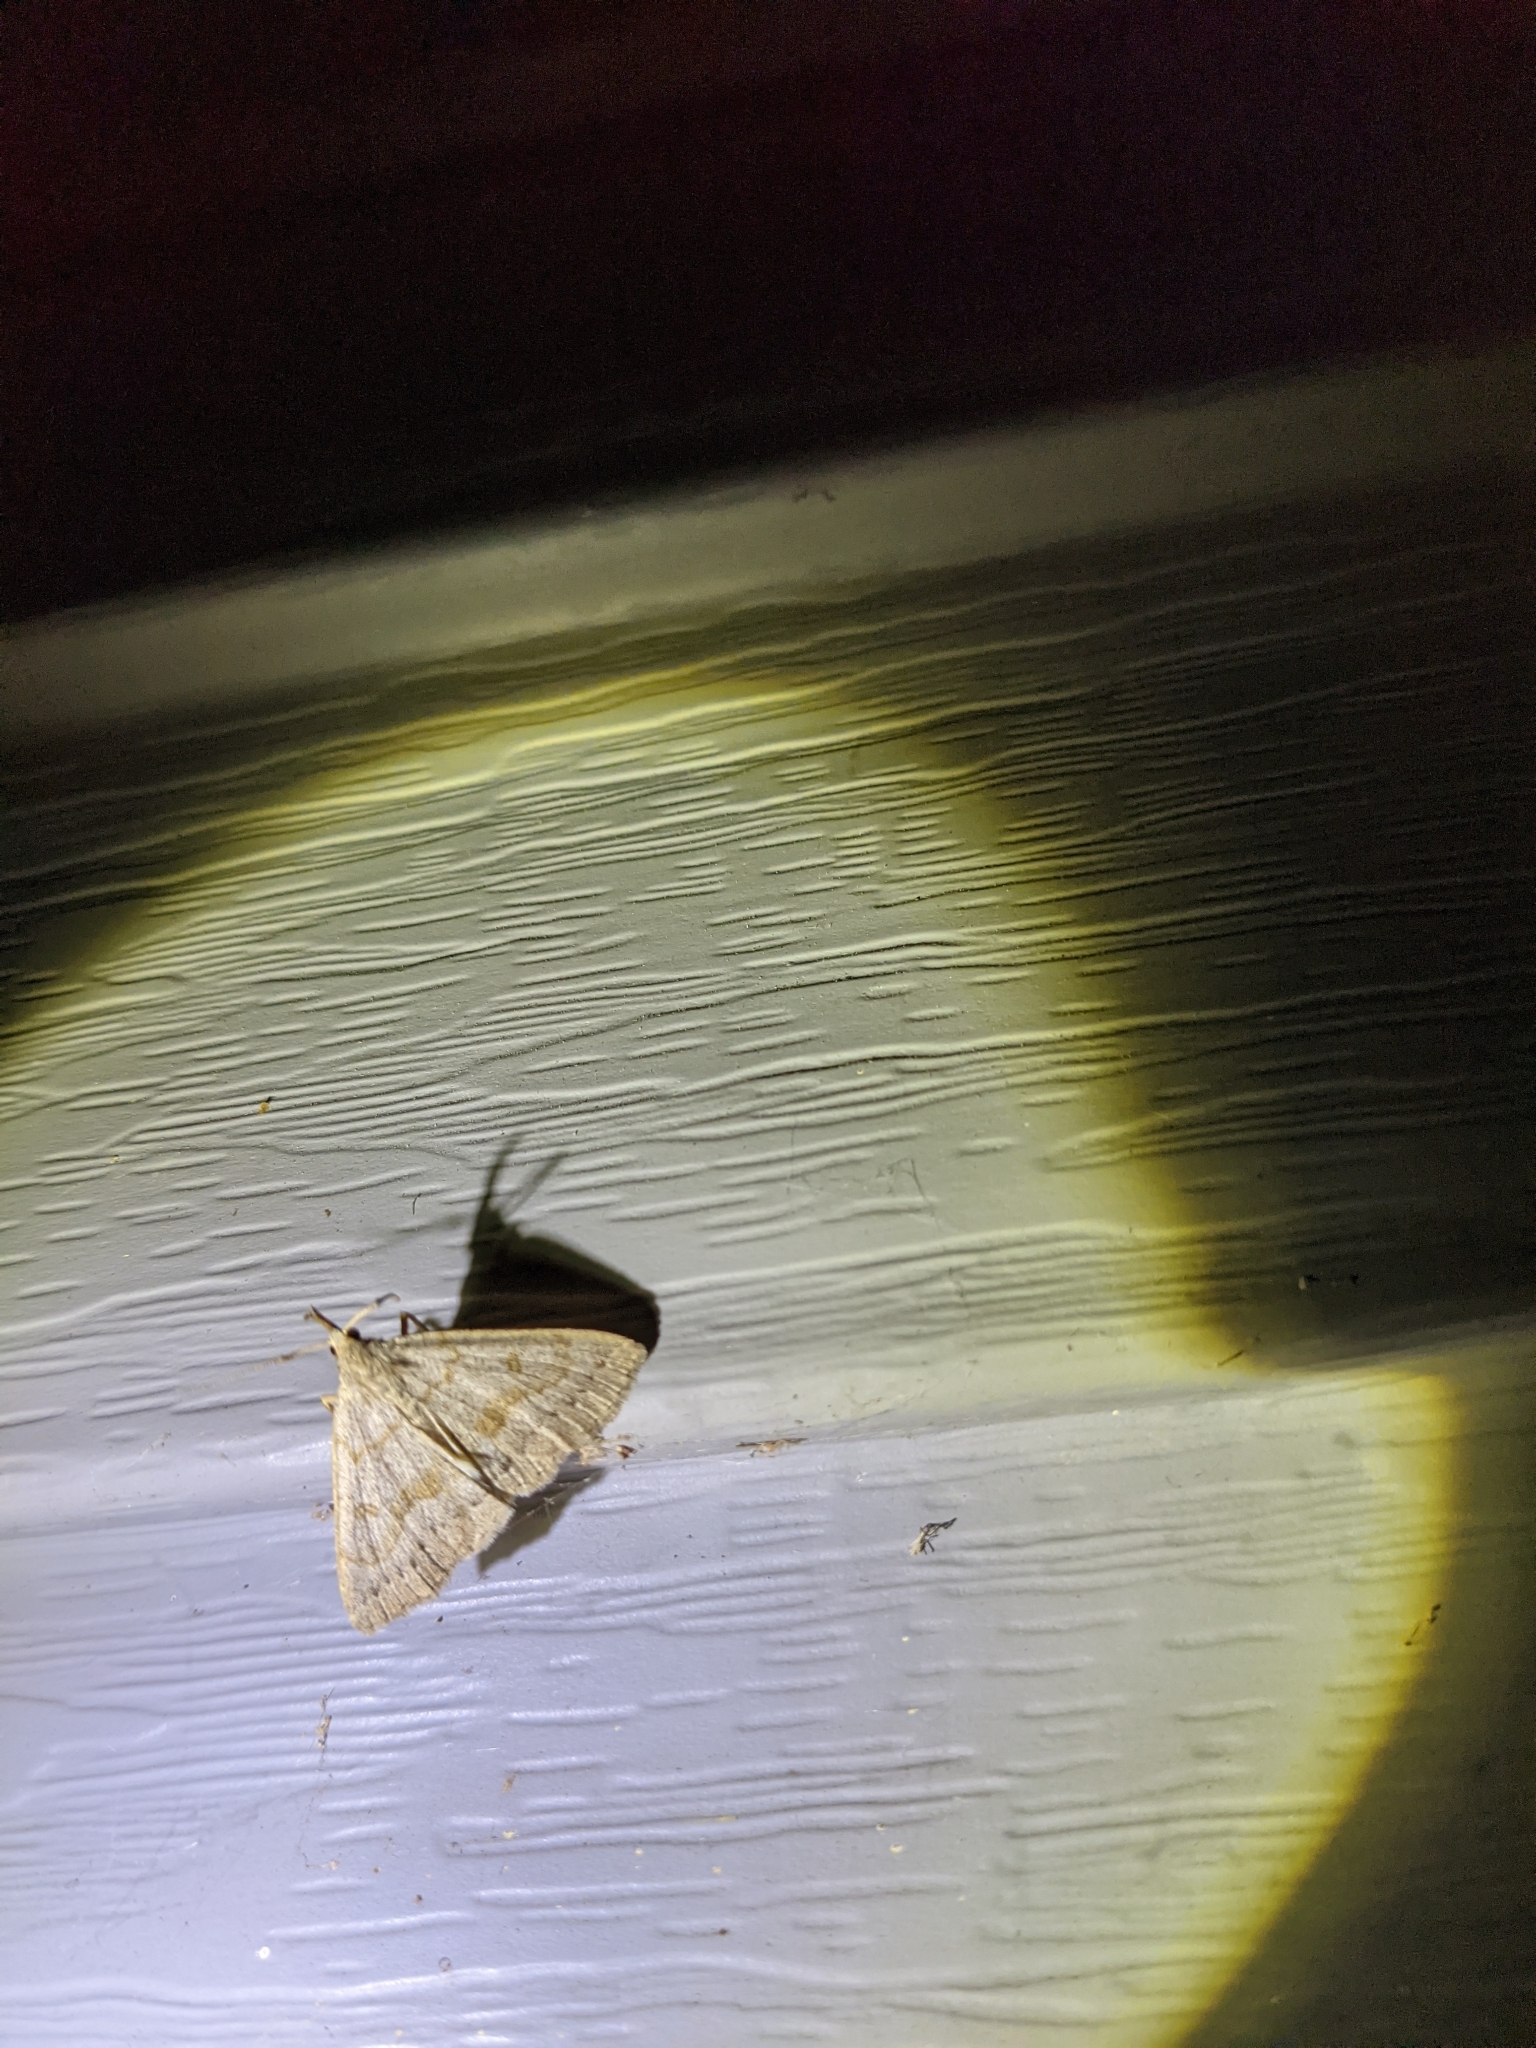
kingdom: Animalia
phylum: Arthropoda
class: Insecta
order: Lepidoptera
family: Erebidae
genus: Macrochilo
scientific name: Macrochilo morbidalis
